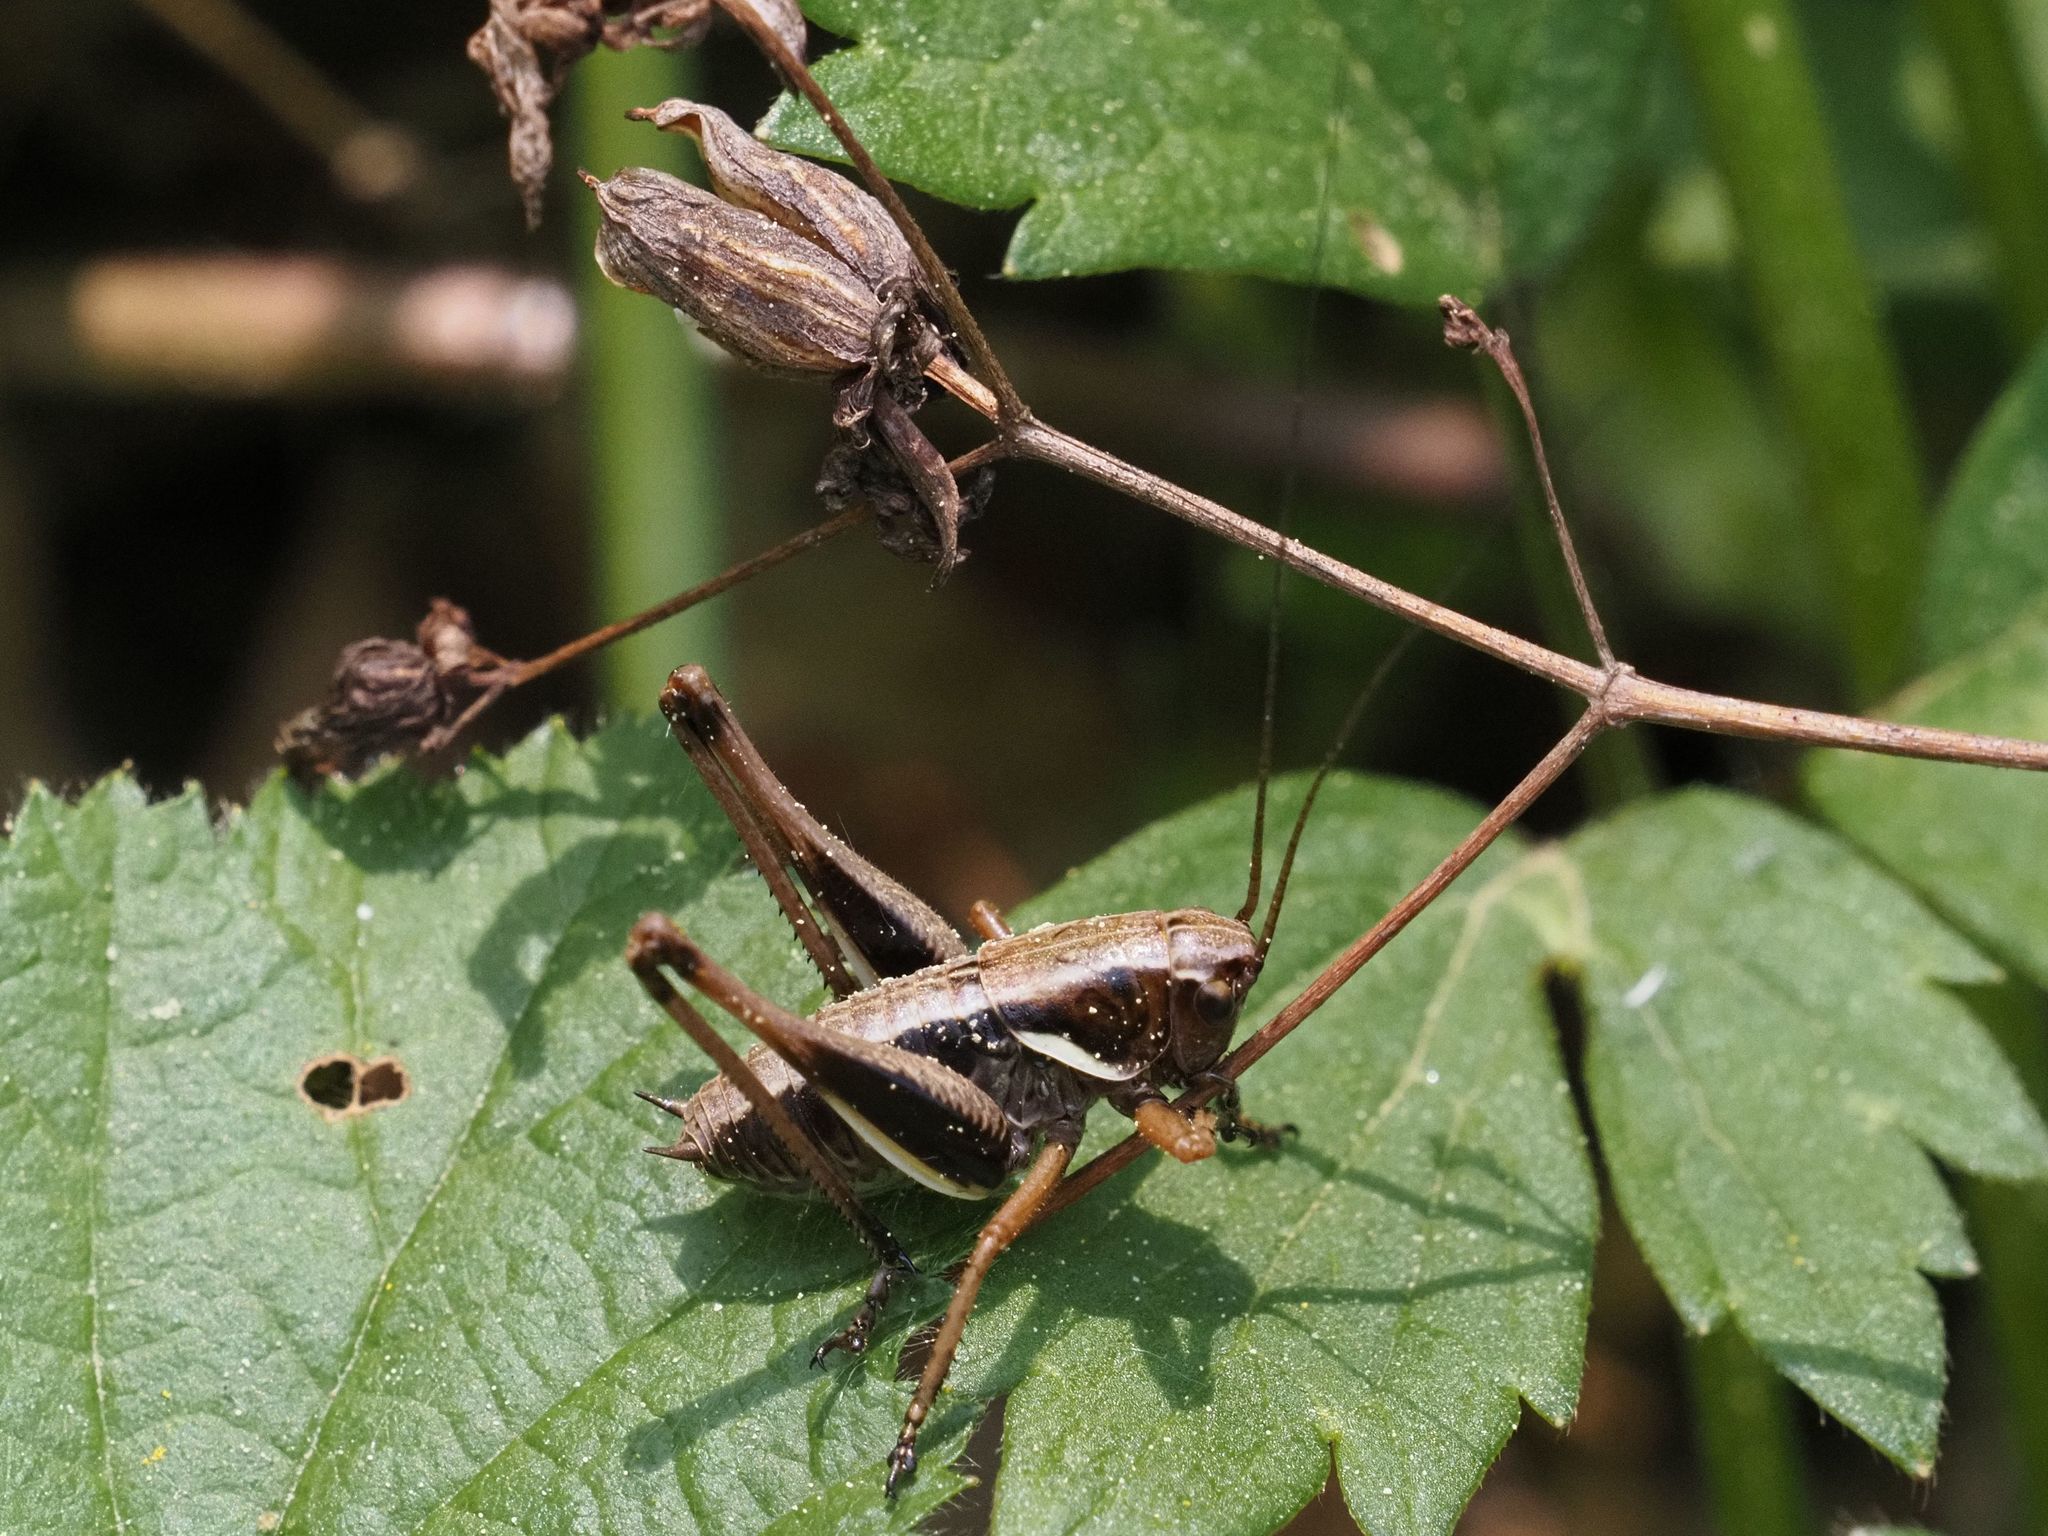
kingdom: Animalia
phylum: Arthropoda
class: Insecta
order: Orthoptera
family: Tettigoniidae
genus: Pholidoptera
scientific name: Pholidoptera aptera
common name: Alpine dark bush-cricket
